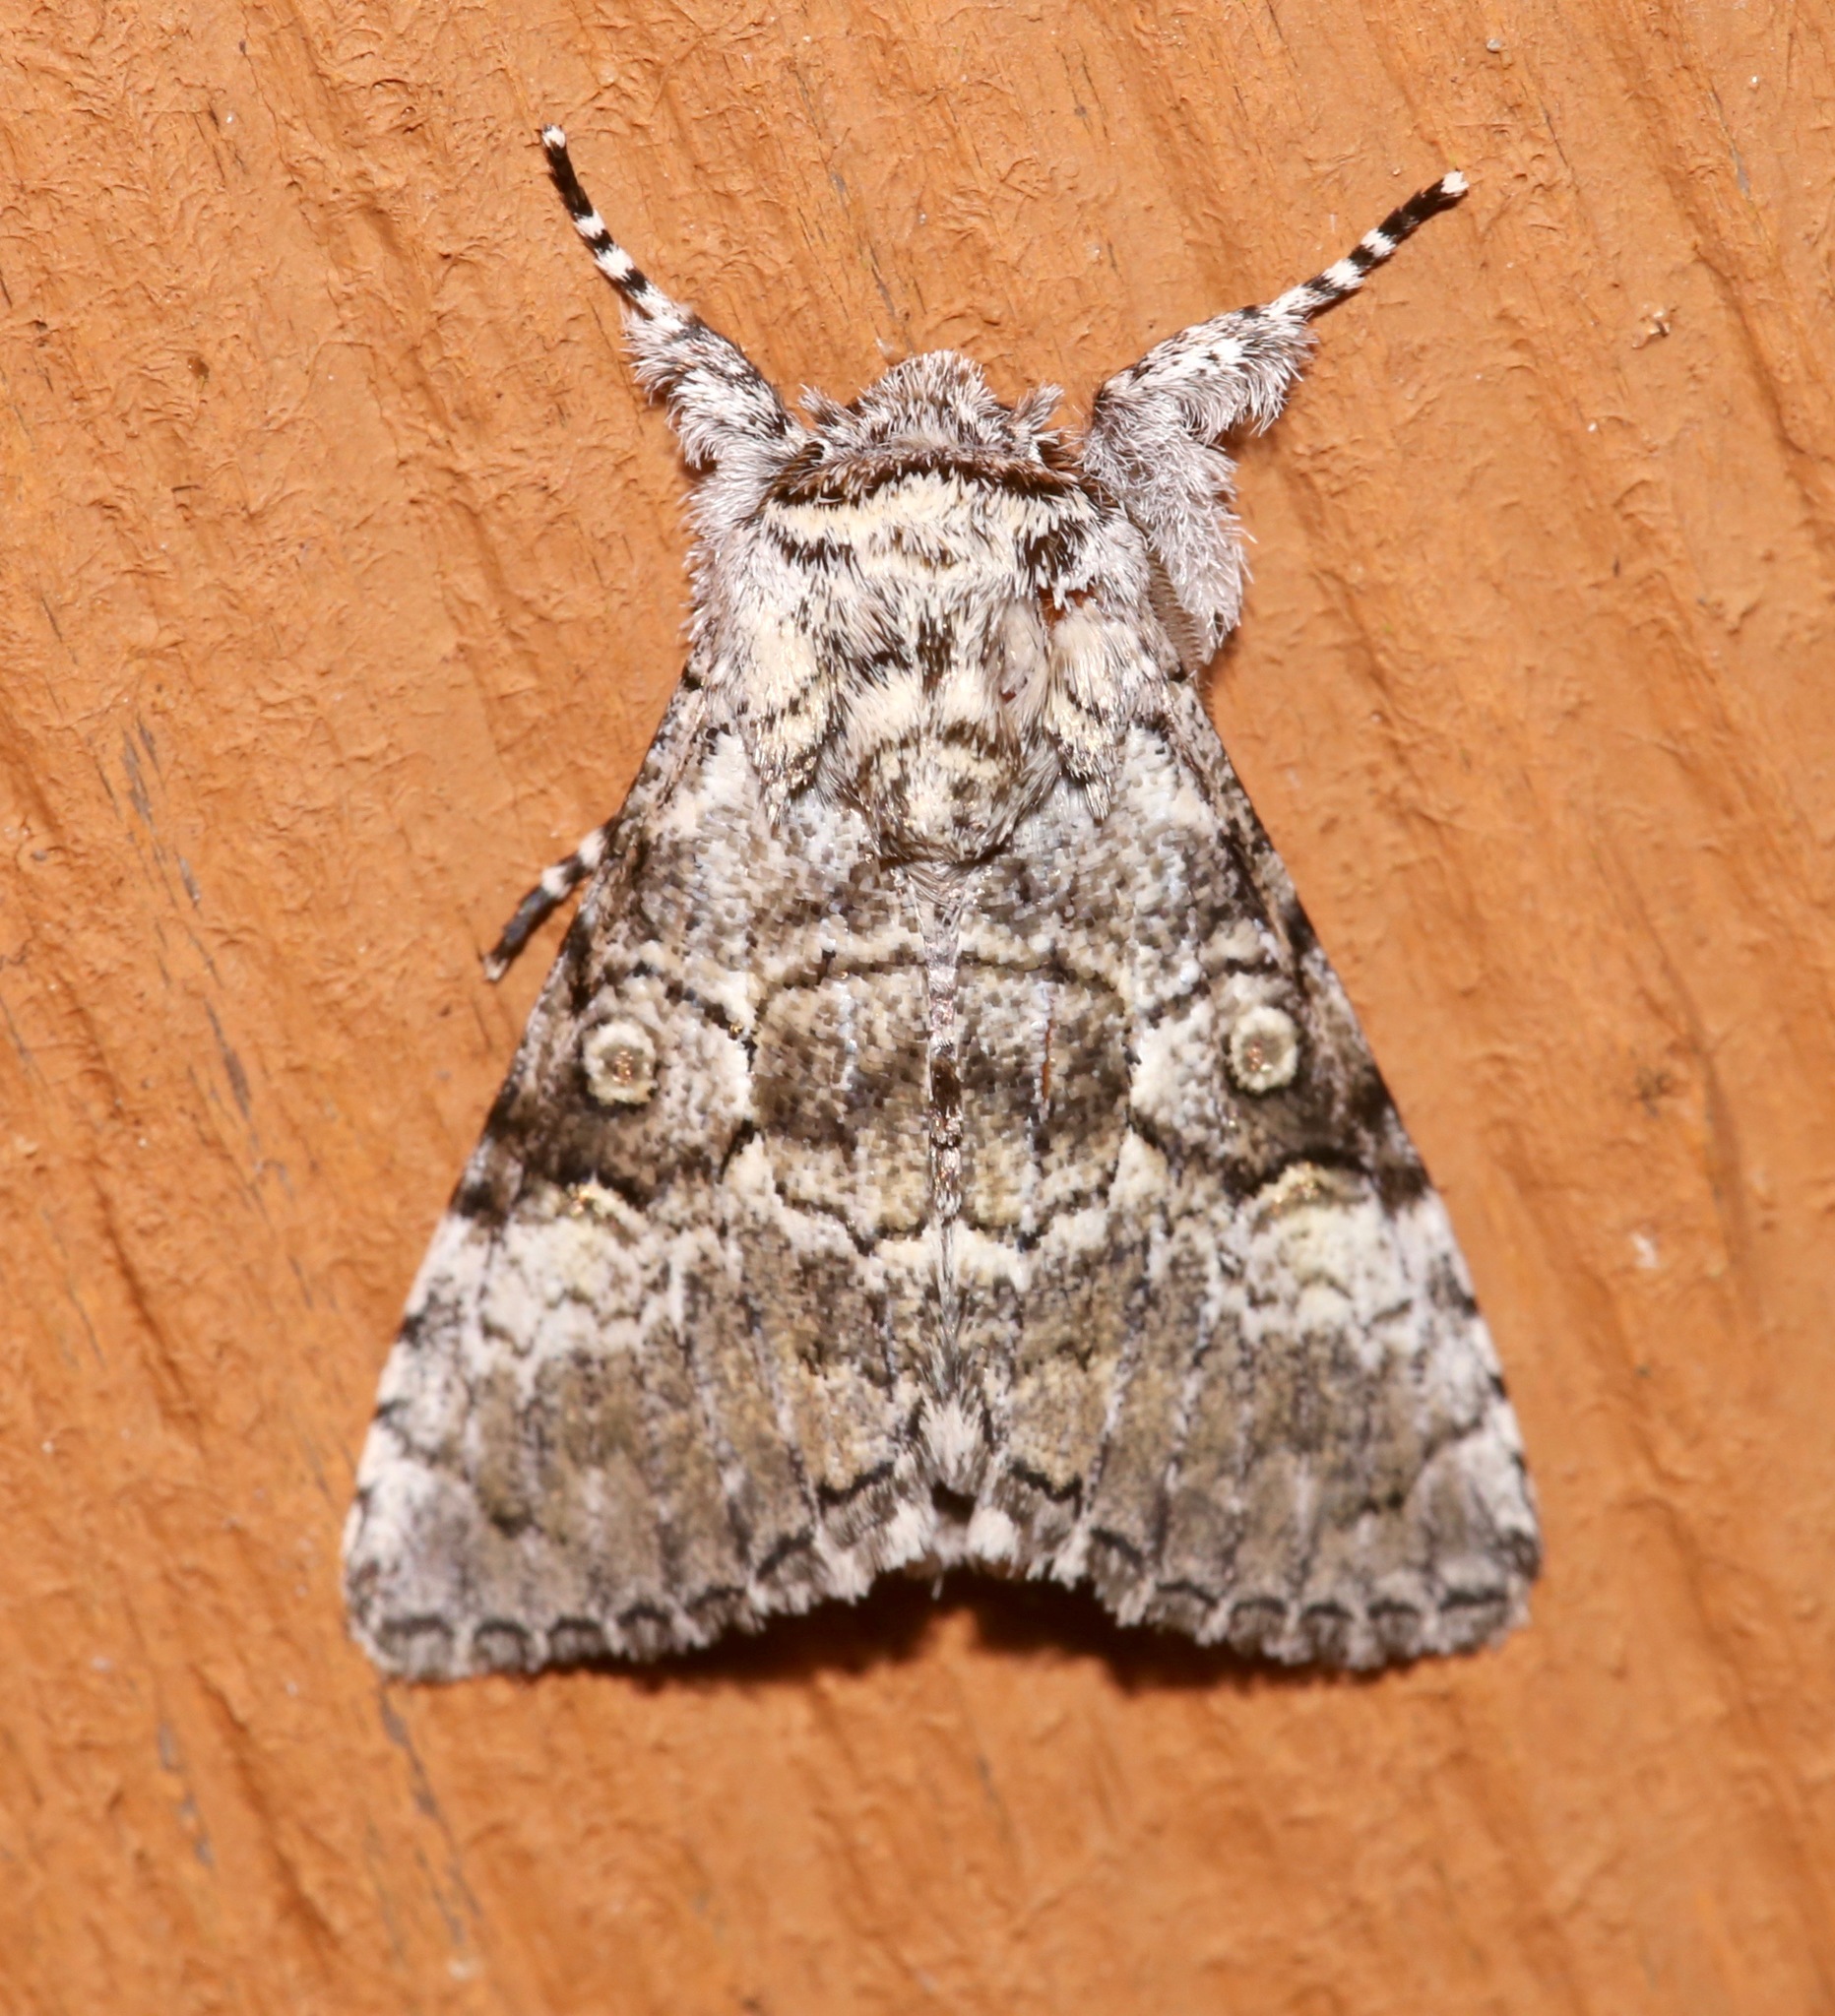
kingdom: Animalia
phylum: Arthropoda
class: Insecta
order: Lepidoptera
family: Noctuidae
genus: Charadra
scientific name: Charadra deridens
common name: Marbled tuffet
